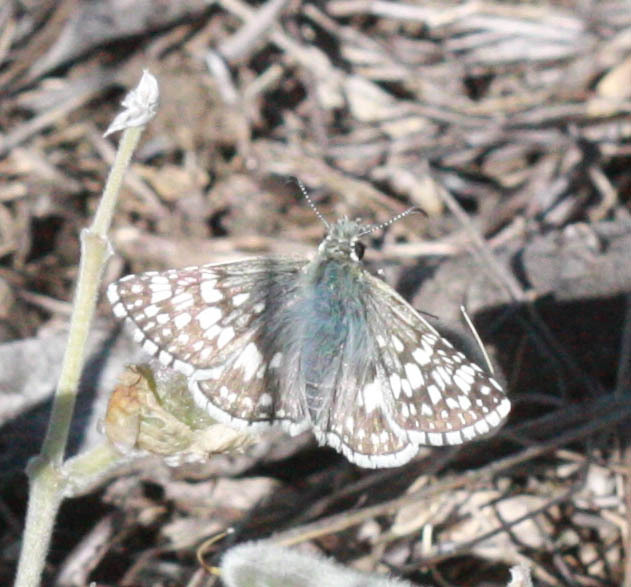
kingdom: Animalia
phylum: Arthropoda
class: Insecta
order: Lepidoptera
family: Hesperiidae
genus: Burnsius
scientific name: Burnsius communis
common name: Common checkered-skipper
